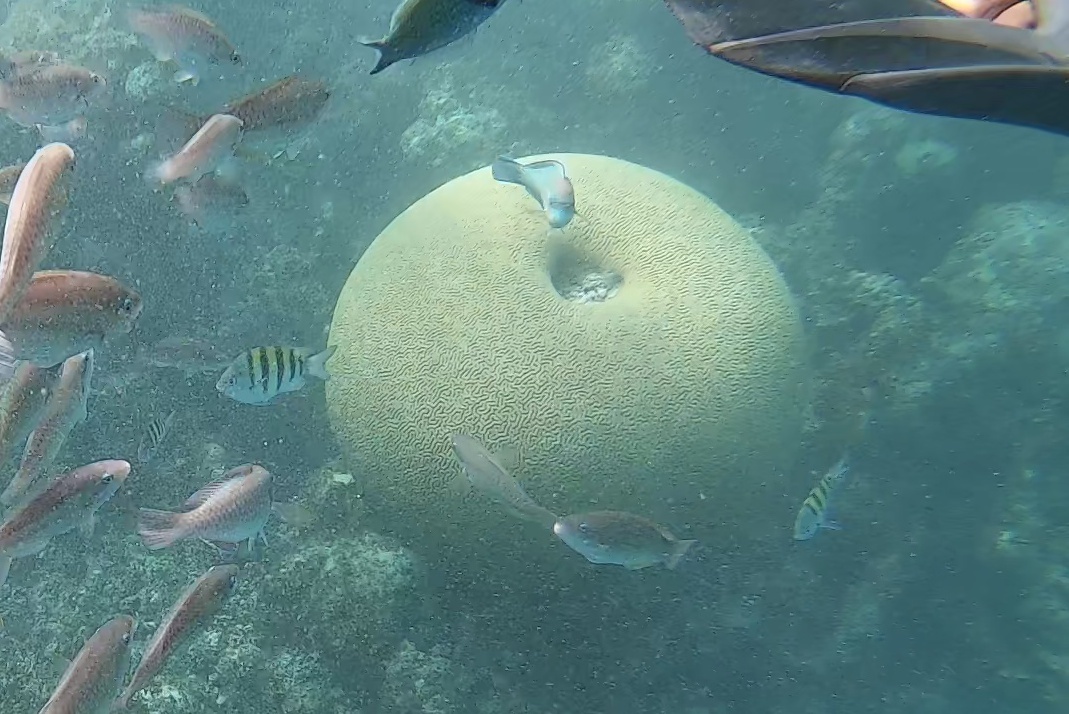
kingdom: Animalia
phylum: Cnidaria
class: Anthozoa
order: Scleractinia
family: Faviidae
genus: Pseudodiploria
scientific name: Pseudodiploria strigosa
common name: Symmetrical brain coral
